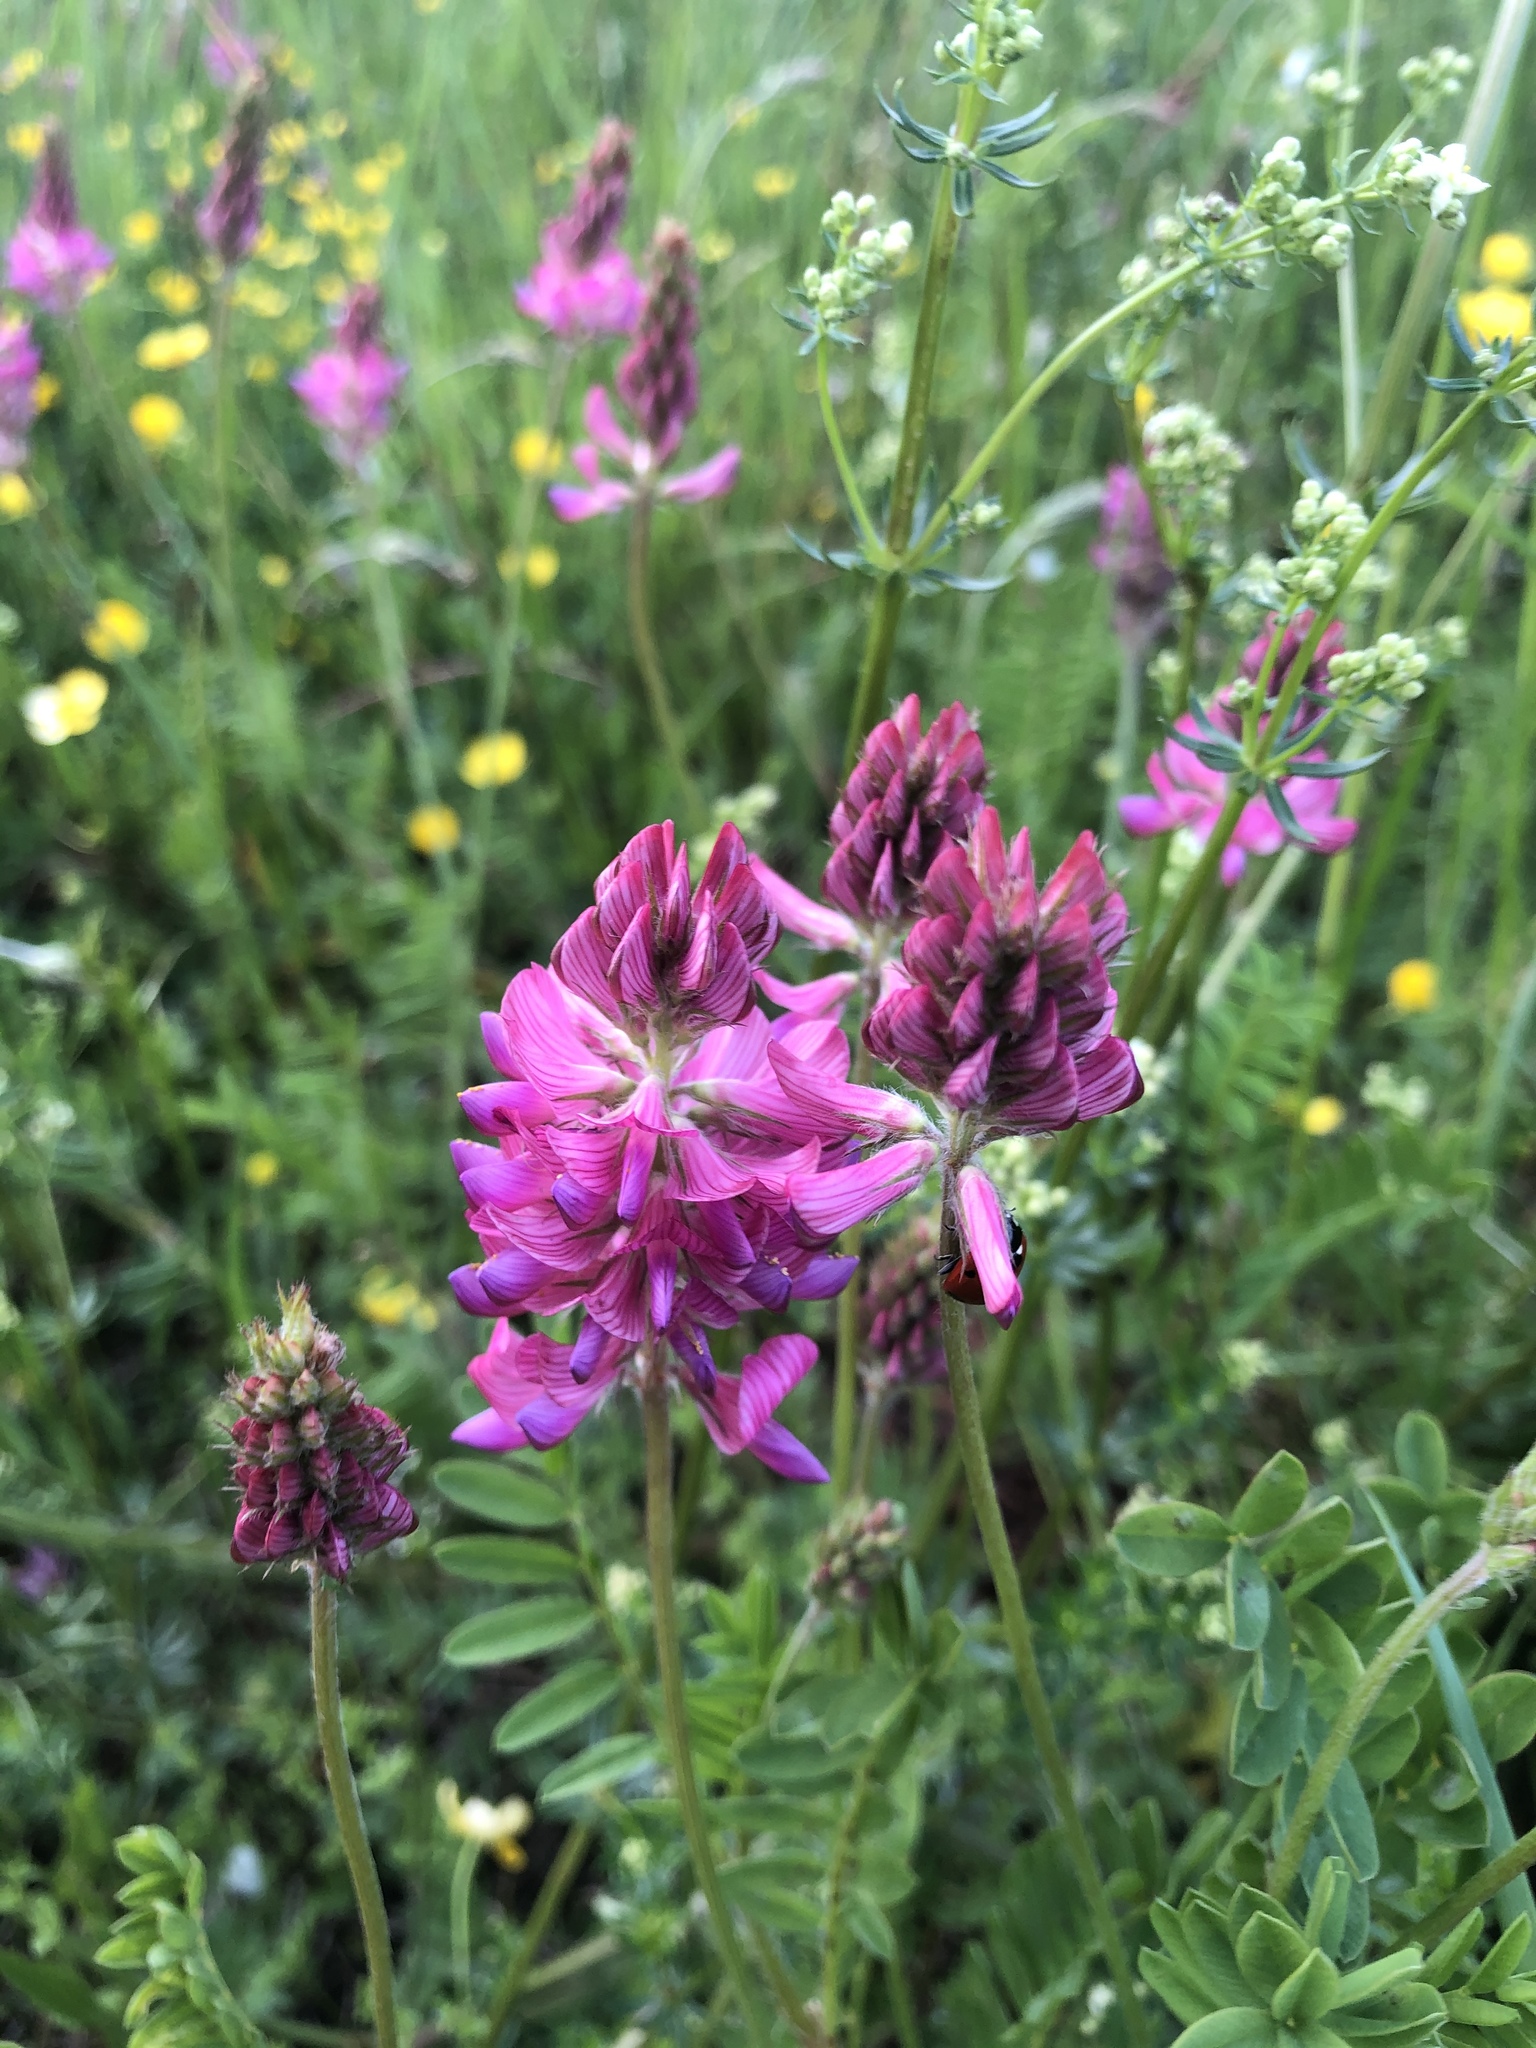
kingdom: Plantae
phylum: Tracheophyta
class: Magnoliopsida
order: Fabales
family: Fabaceae
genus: Onobrychis
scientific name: Onobrychis viciifolia
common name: Sainfoin
